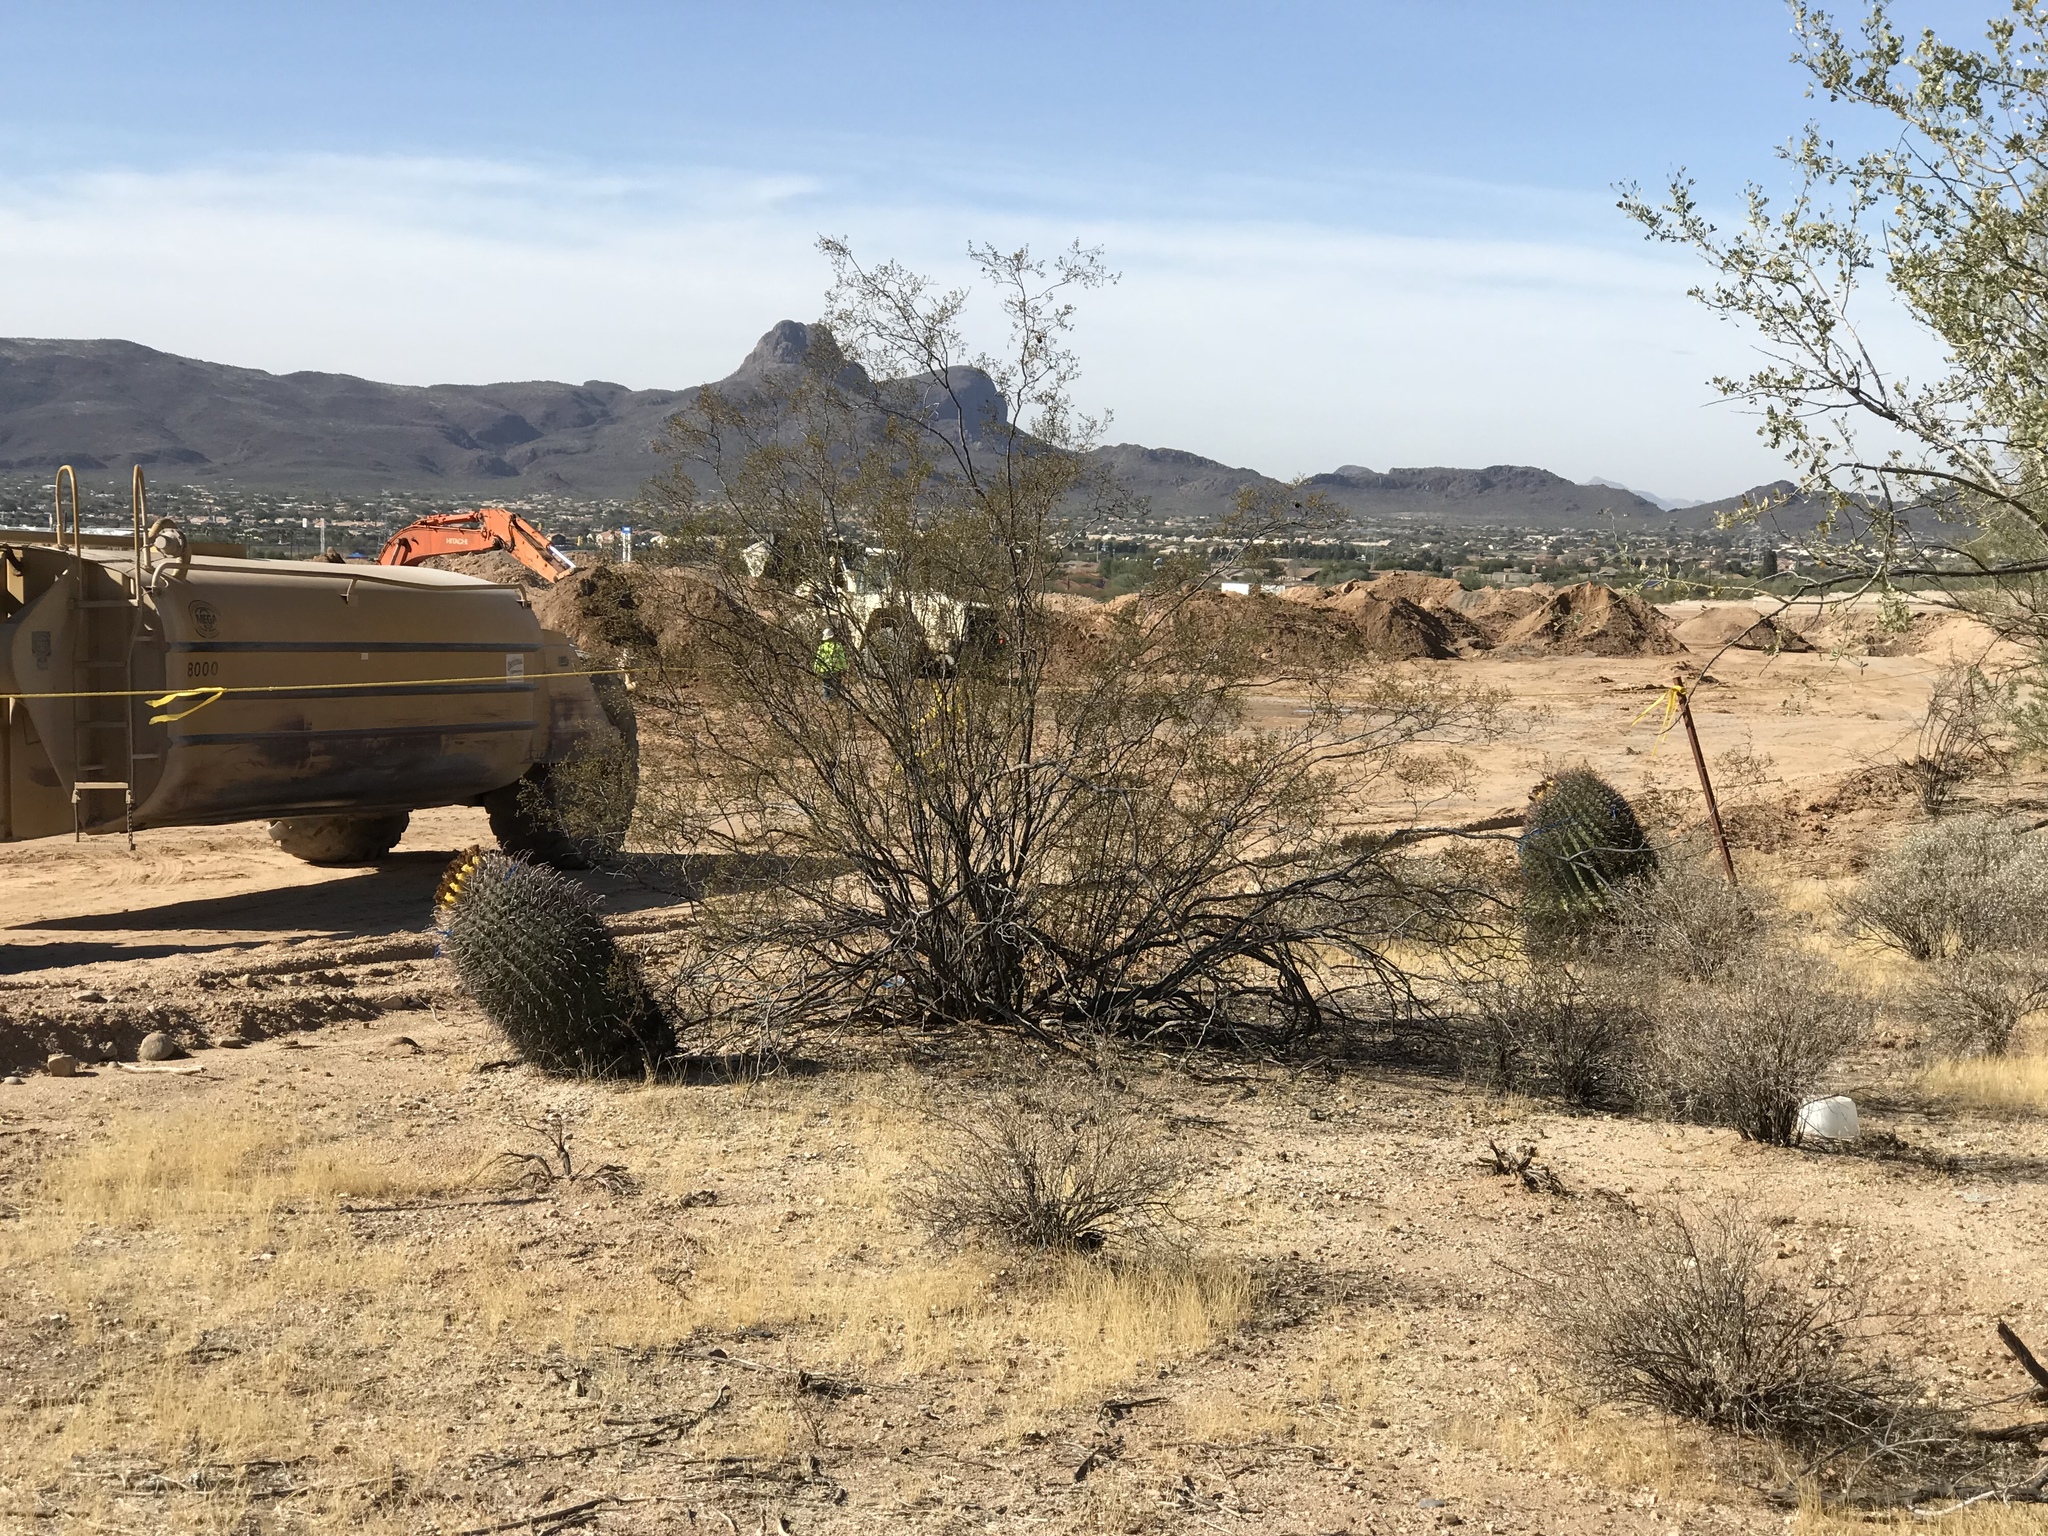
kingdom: Plantae
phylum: Tracheophyta
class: Magnoliopsida
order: Zygophyllales
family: Zygophyllaceae
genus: Larrea
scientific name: Larrea tridentata
